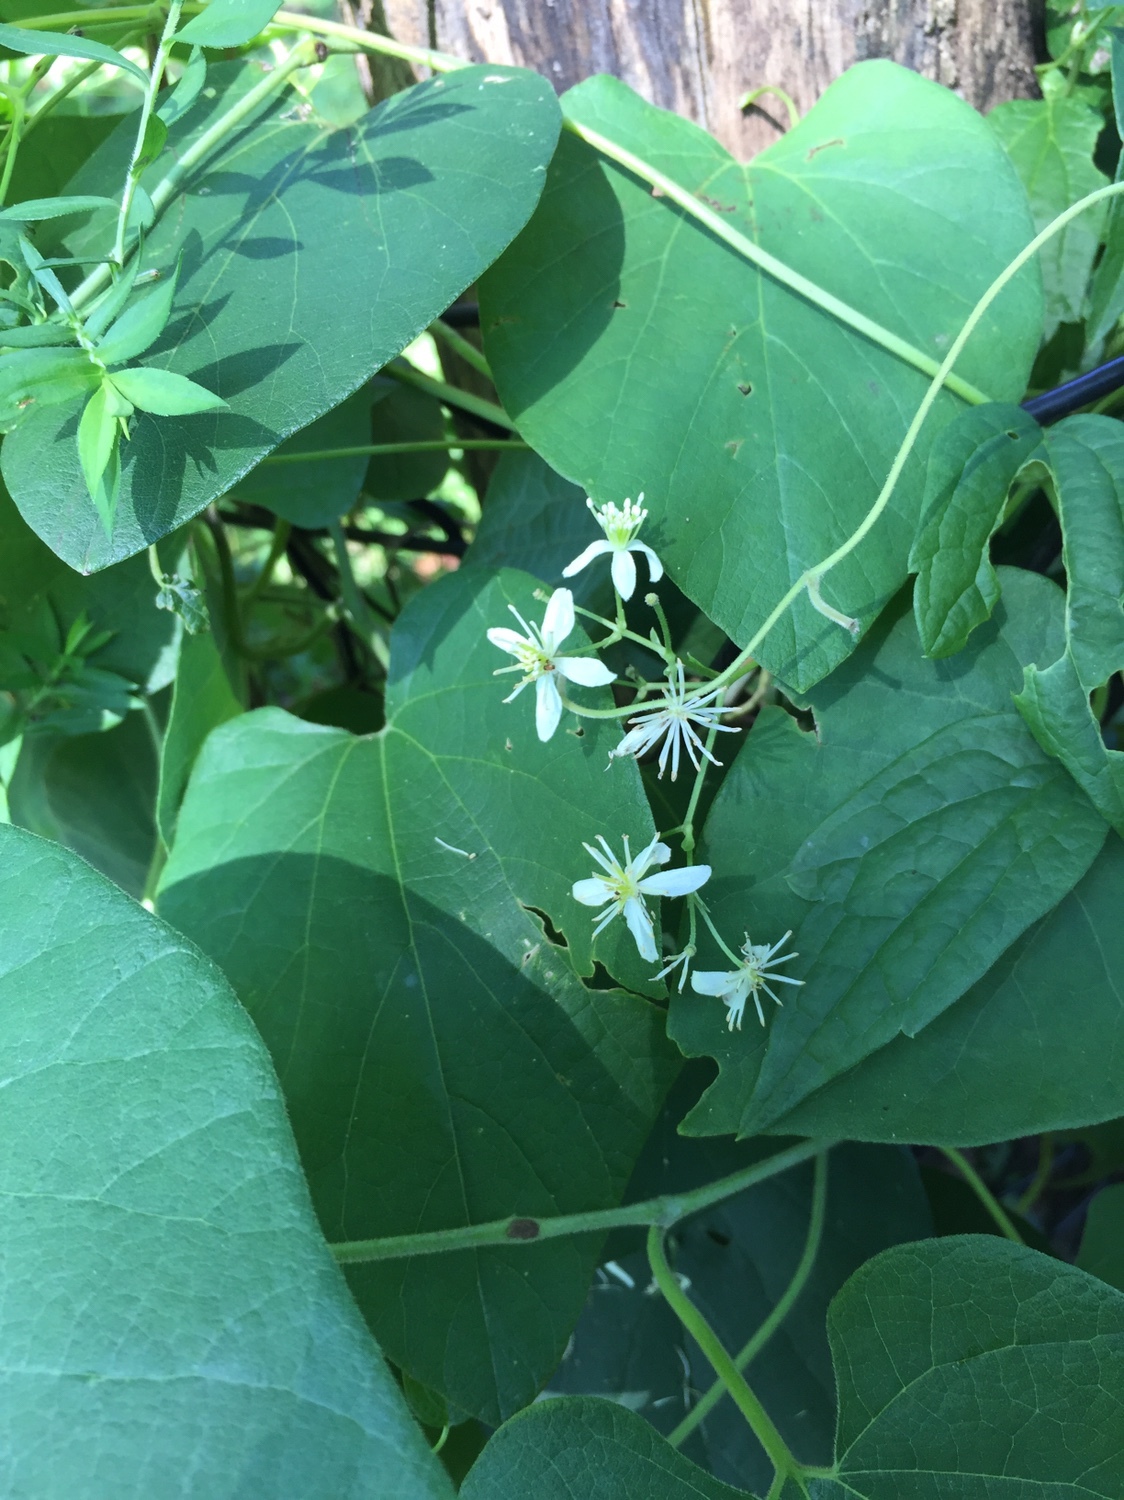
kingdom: Plantae
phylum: Tracheophyta
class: Magnoliopsida
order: Ranunculales
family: Ranunculaceae
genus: Clematis
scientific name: Clematis virginiana
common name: Virgin's-bower
